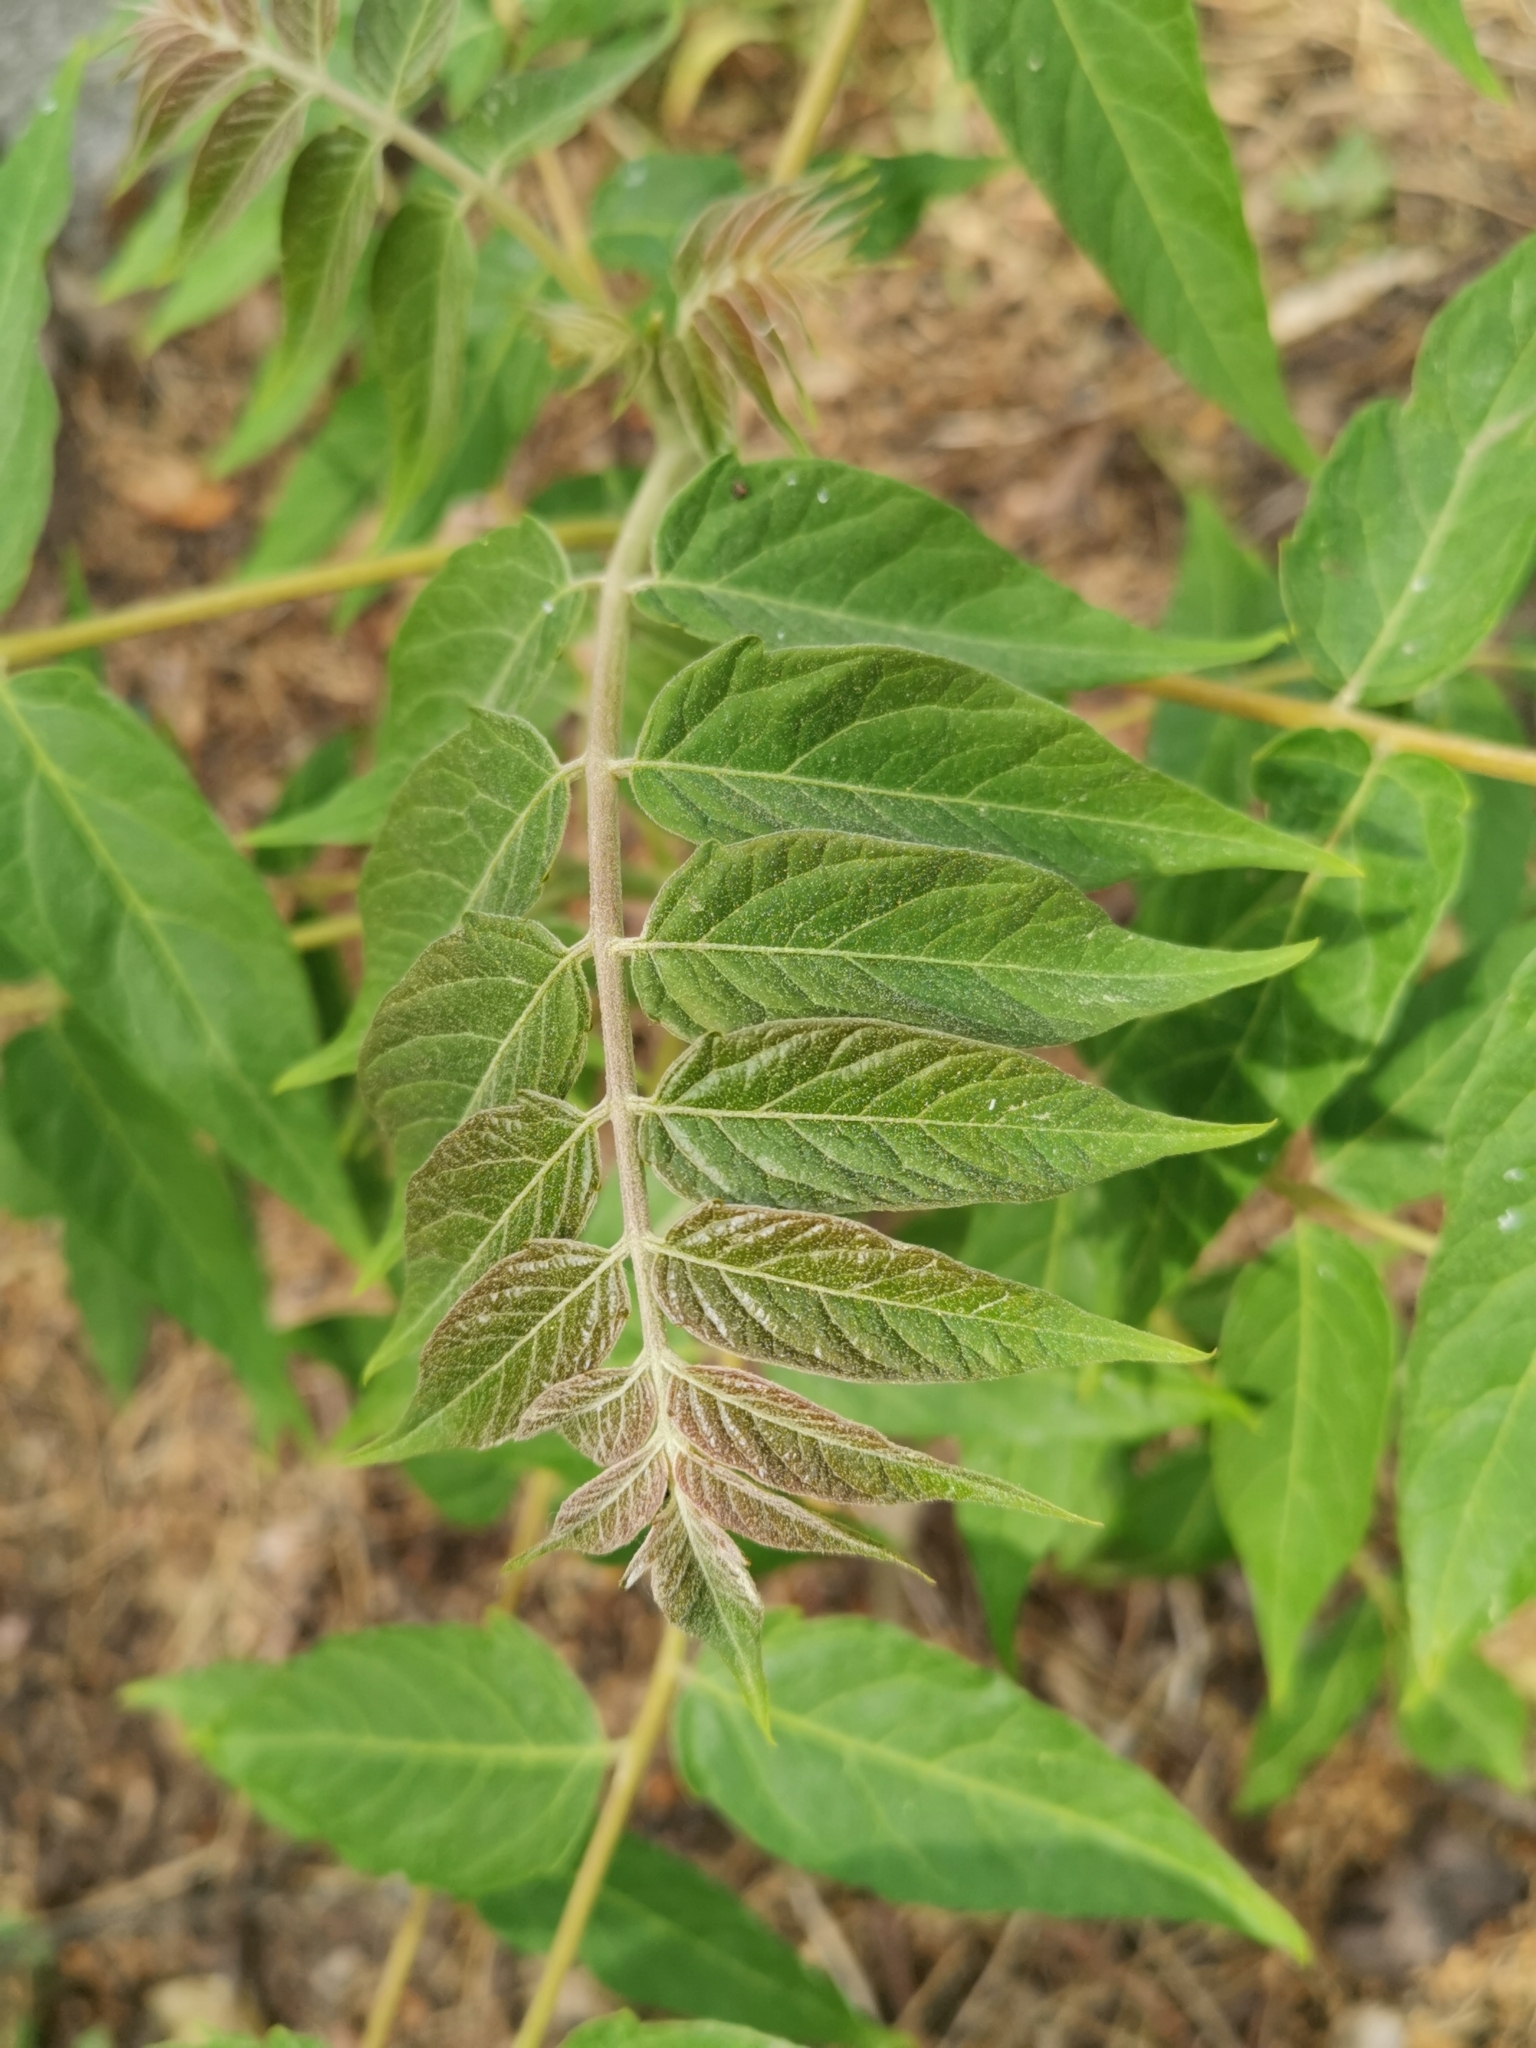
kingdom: Plantae
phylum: Tracheophyta
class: Magnoliopsida
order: Sapindales
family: Simaroubaceae
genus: Ailanthus
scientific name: Ailanthus altissima
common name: Tree-of-heaven
